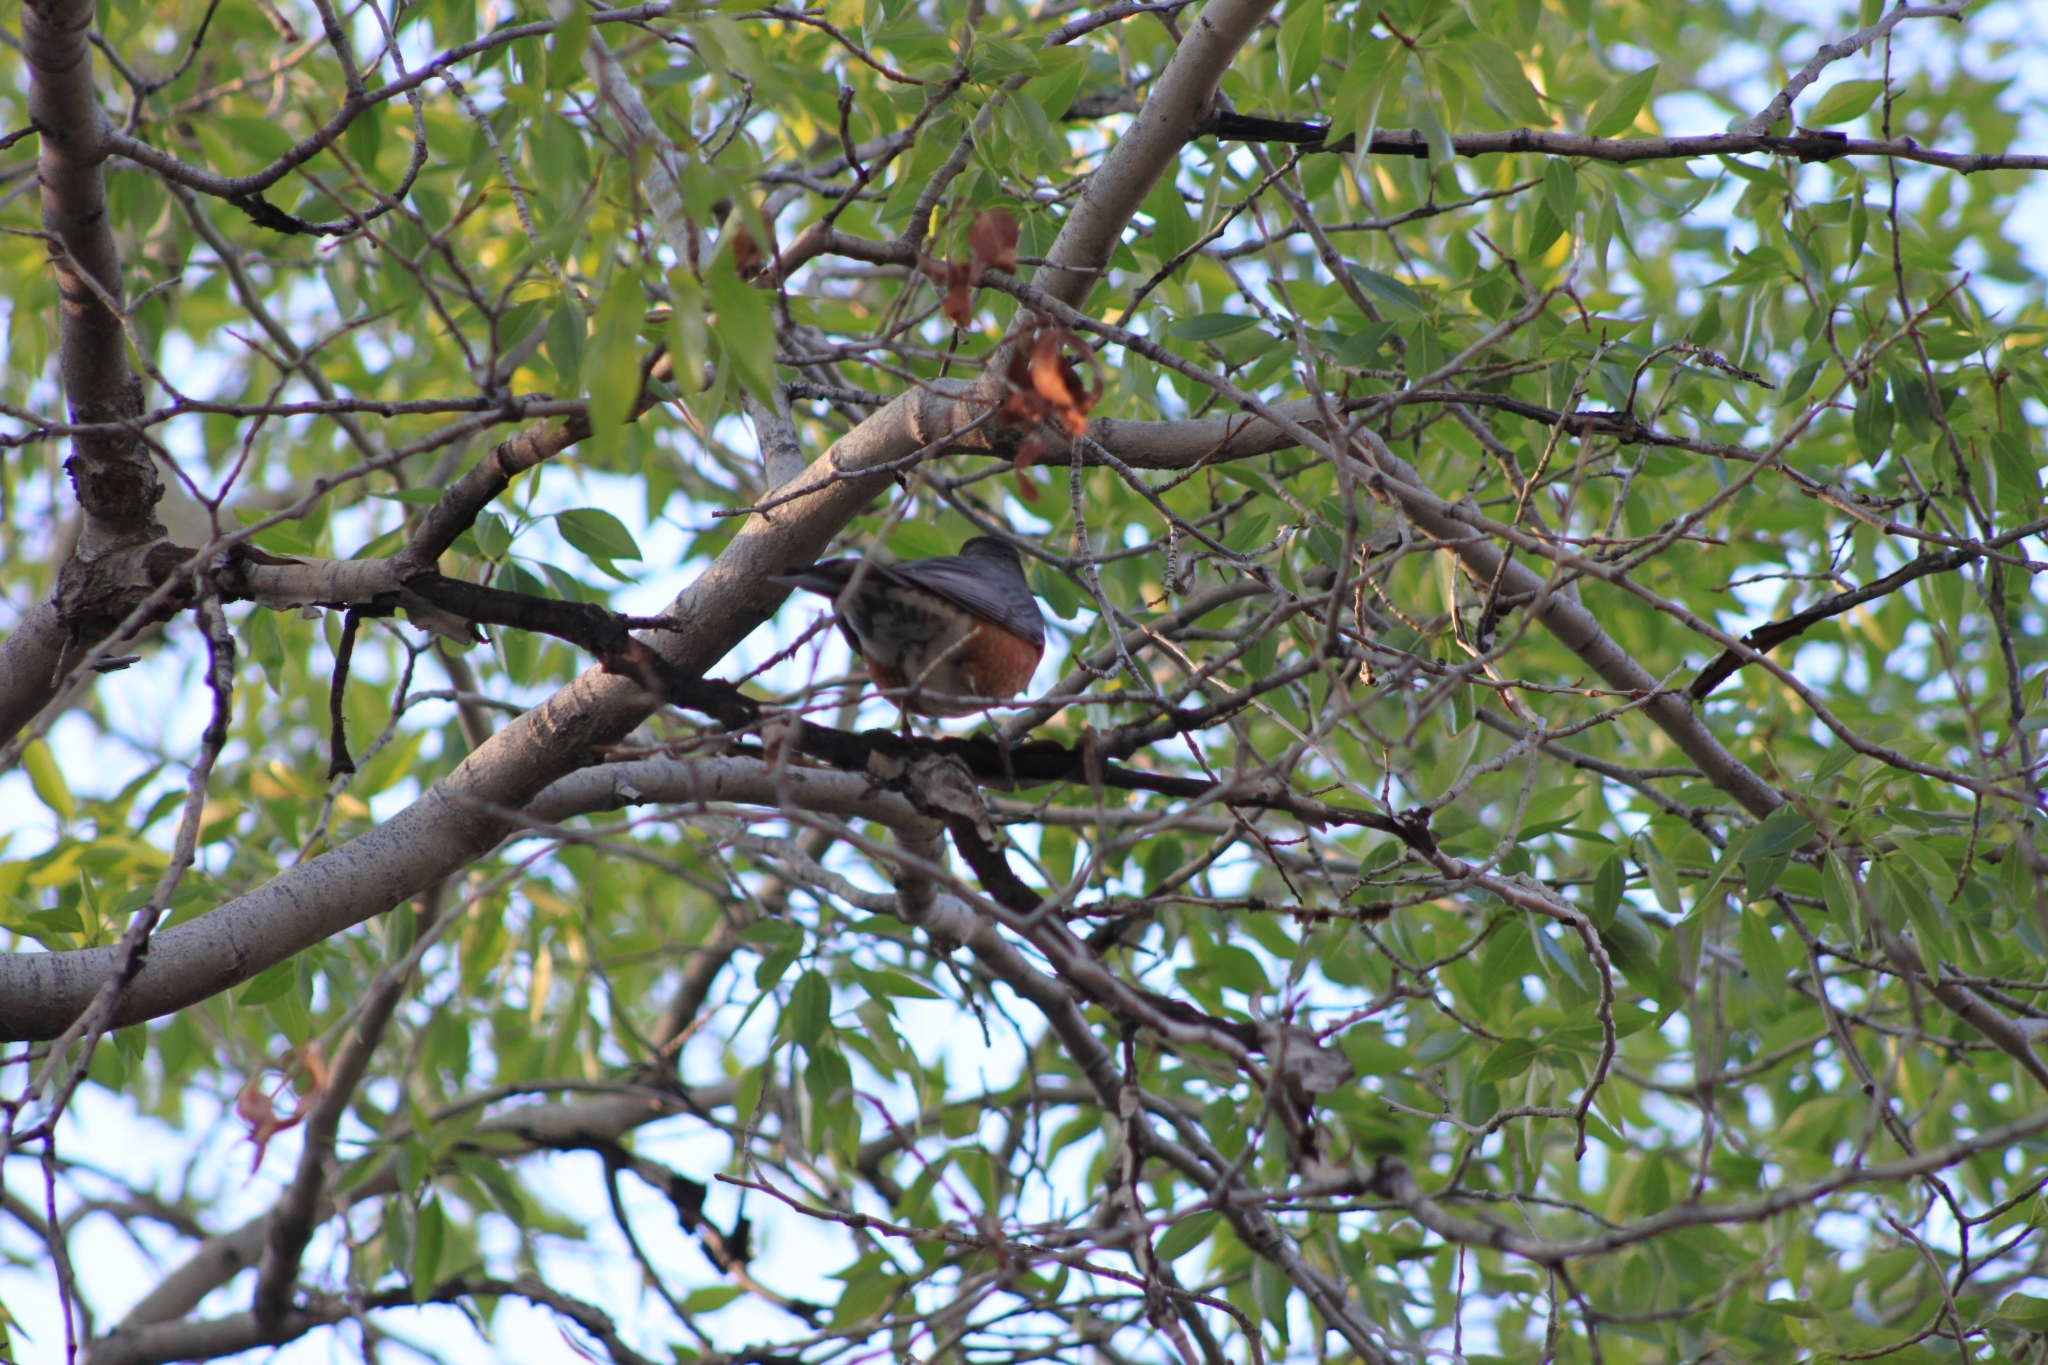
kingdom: Animalia
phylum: Chordata
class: Aves
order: Passeriformes
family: Turdidae
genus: Turdus
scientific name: Turdus migratorius
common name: American robin
